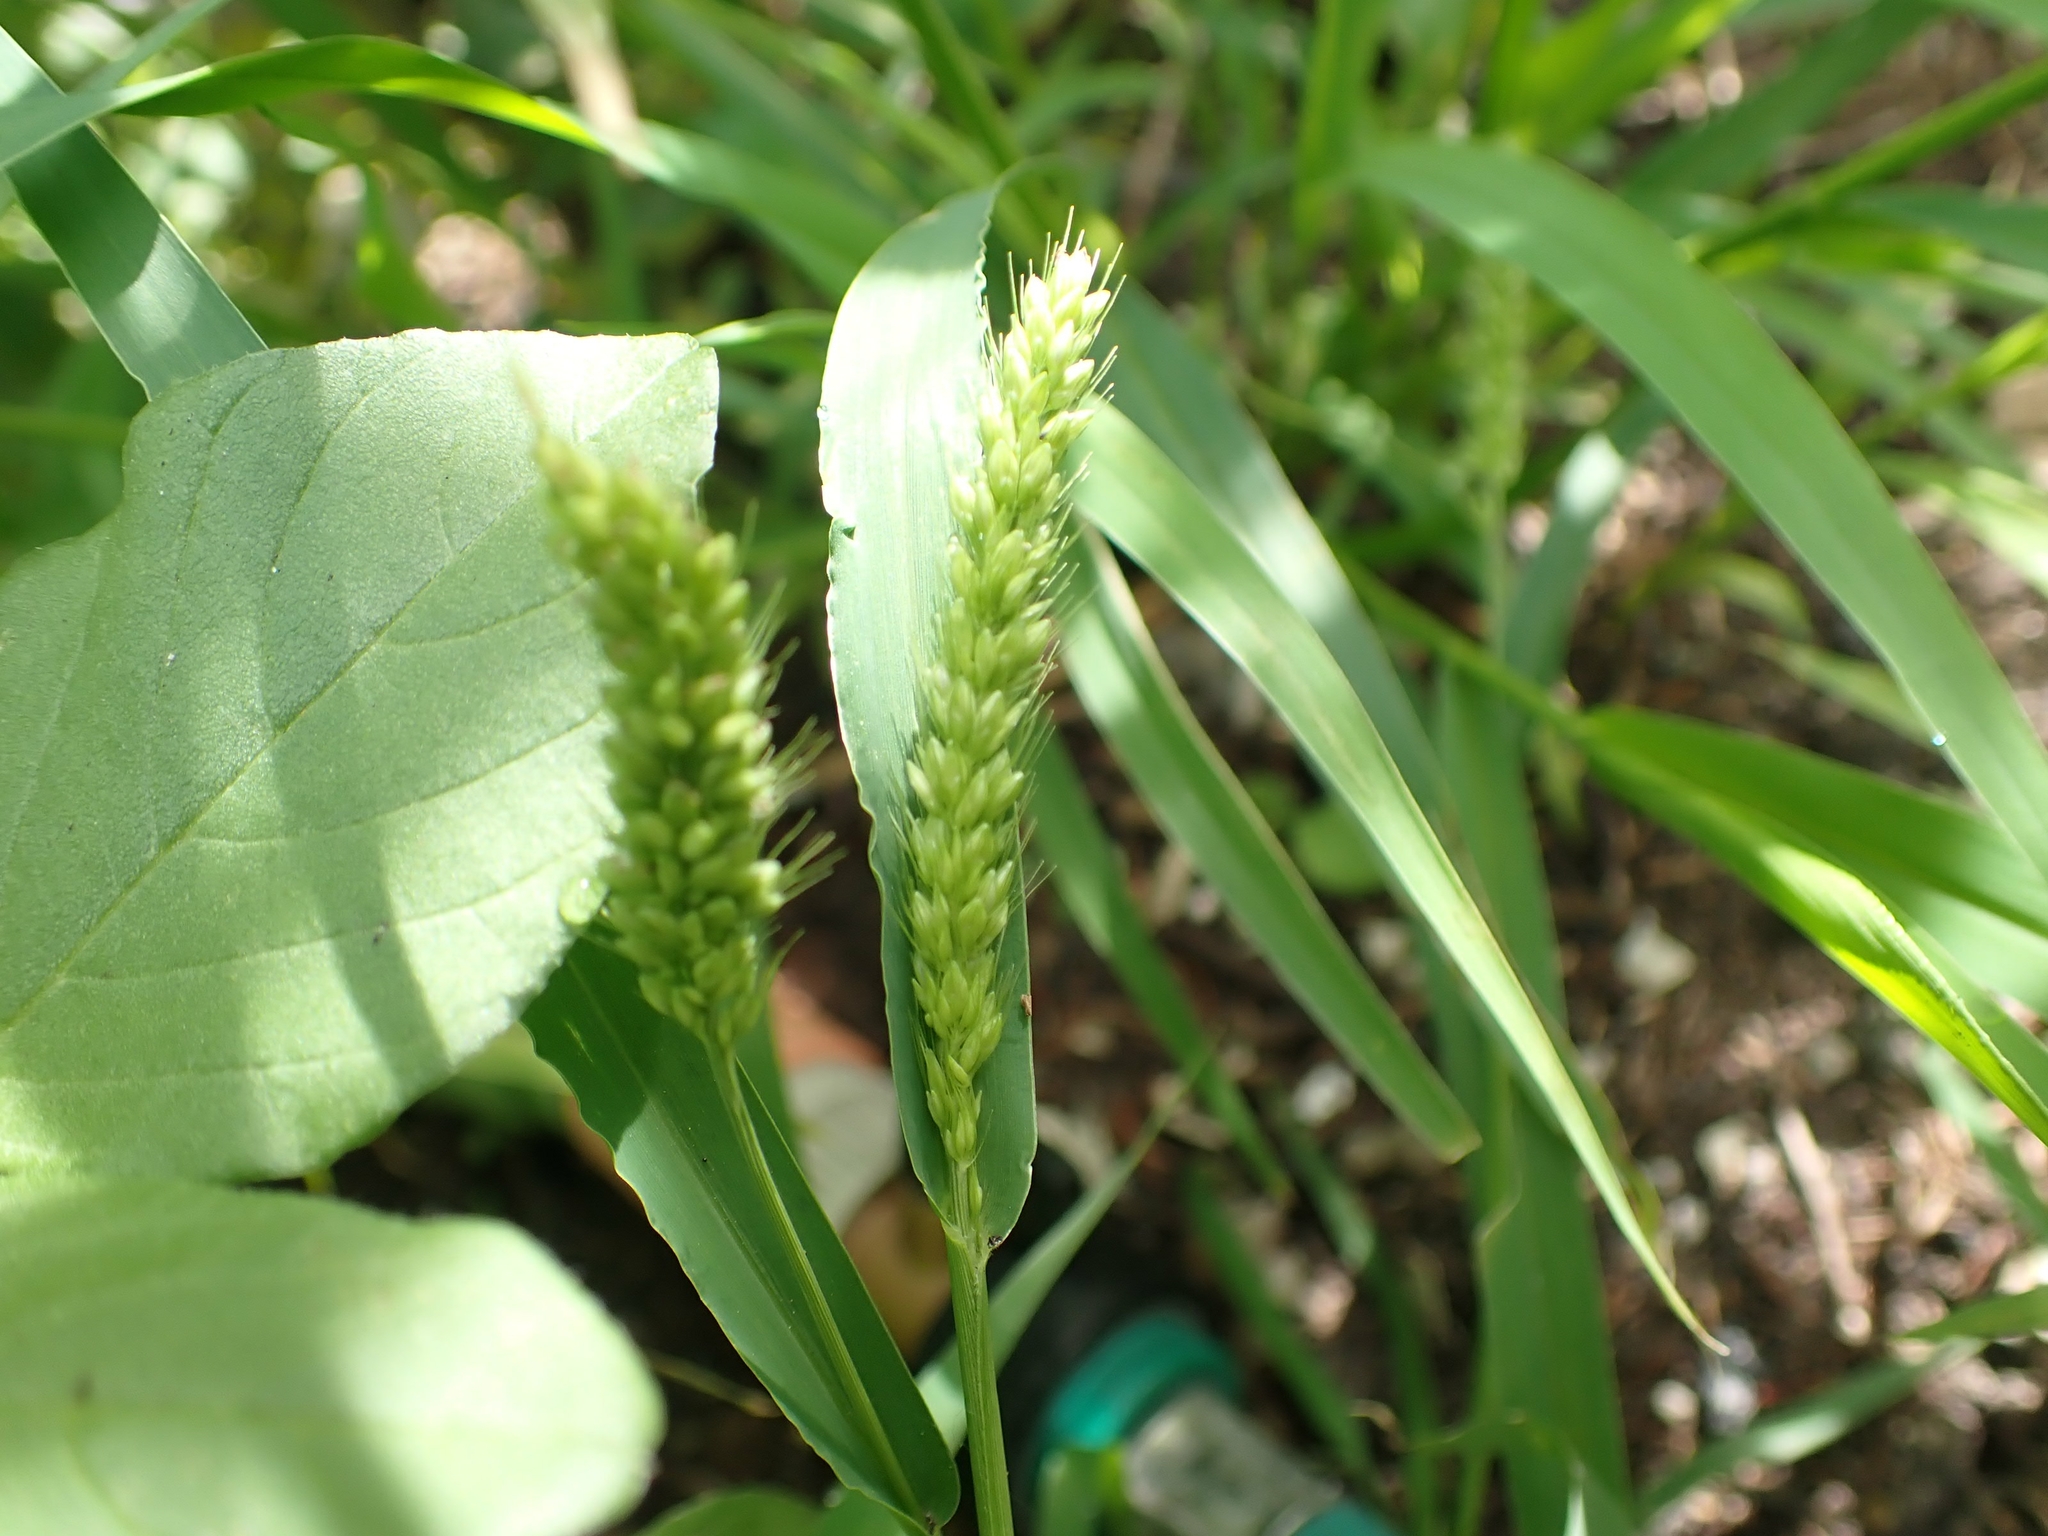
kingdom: Plantae
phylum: Tracheophyta
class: Liliopsida
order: Poales
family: Poaceae
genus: Echinochloa
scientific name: Echinochloa crus-galli
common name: Cockspur
